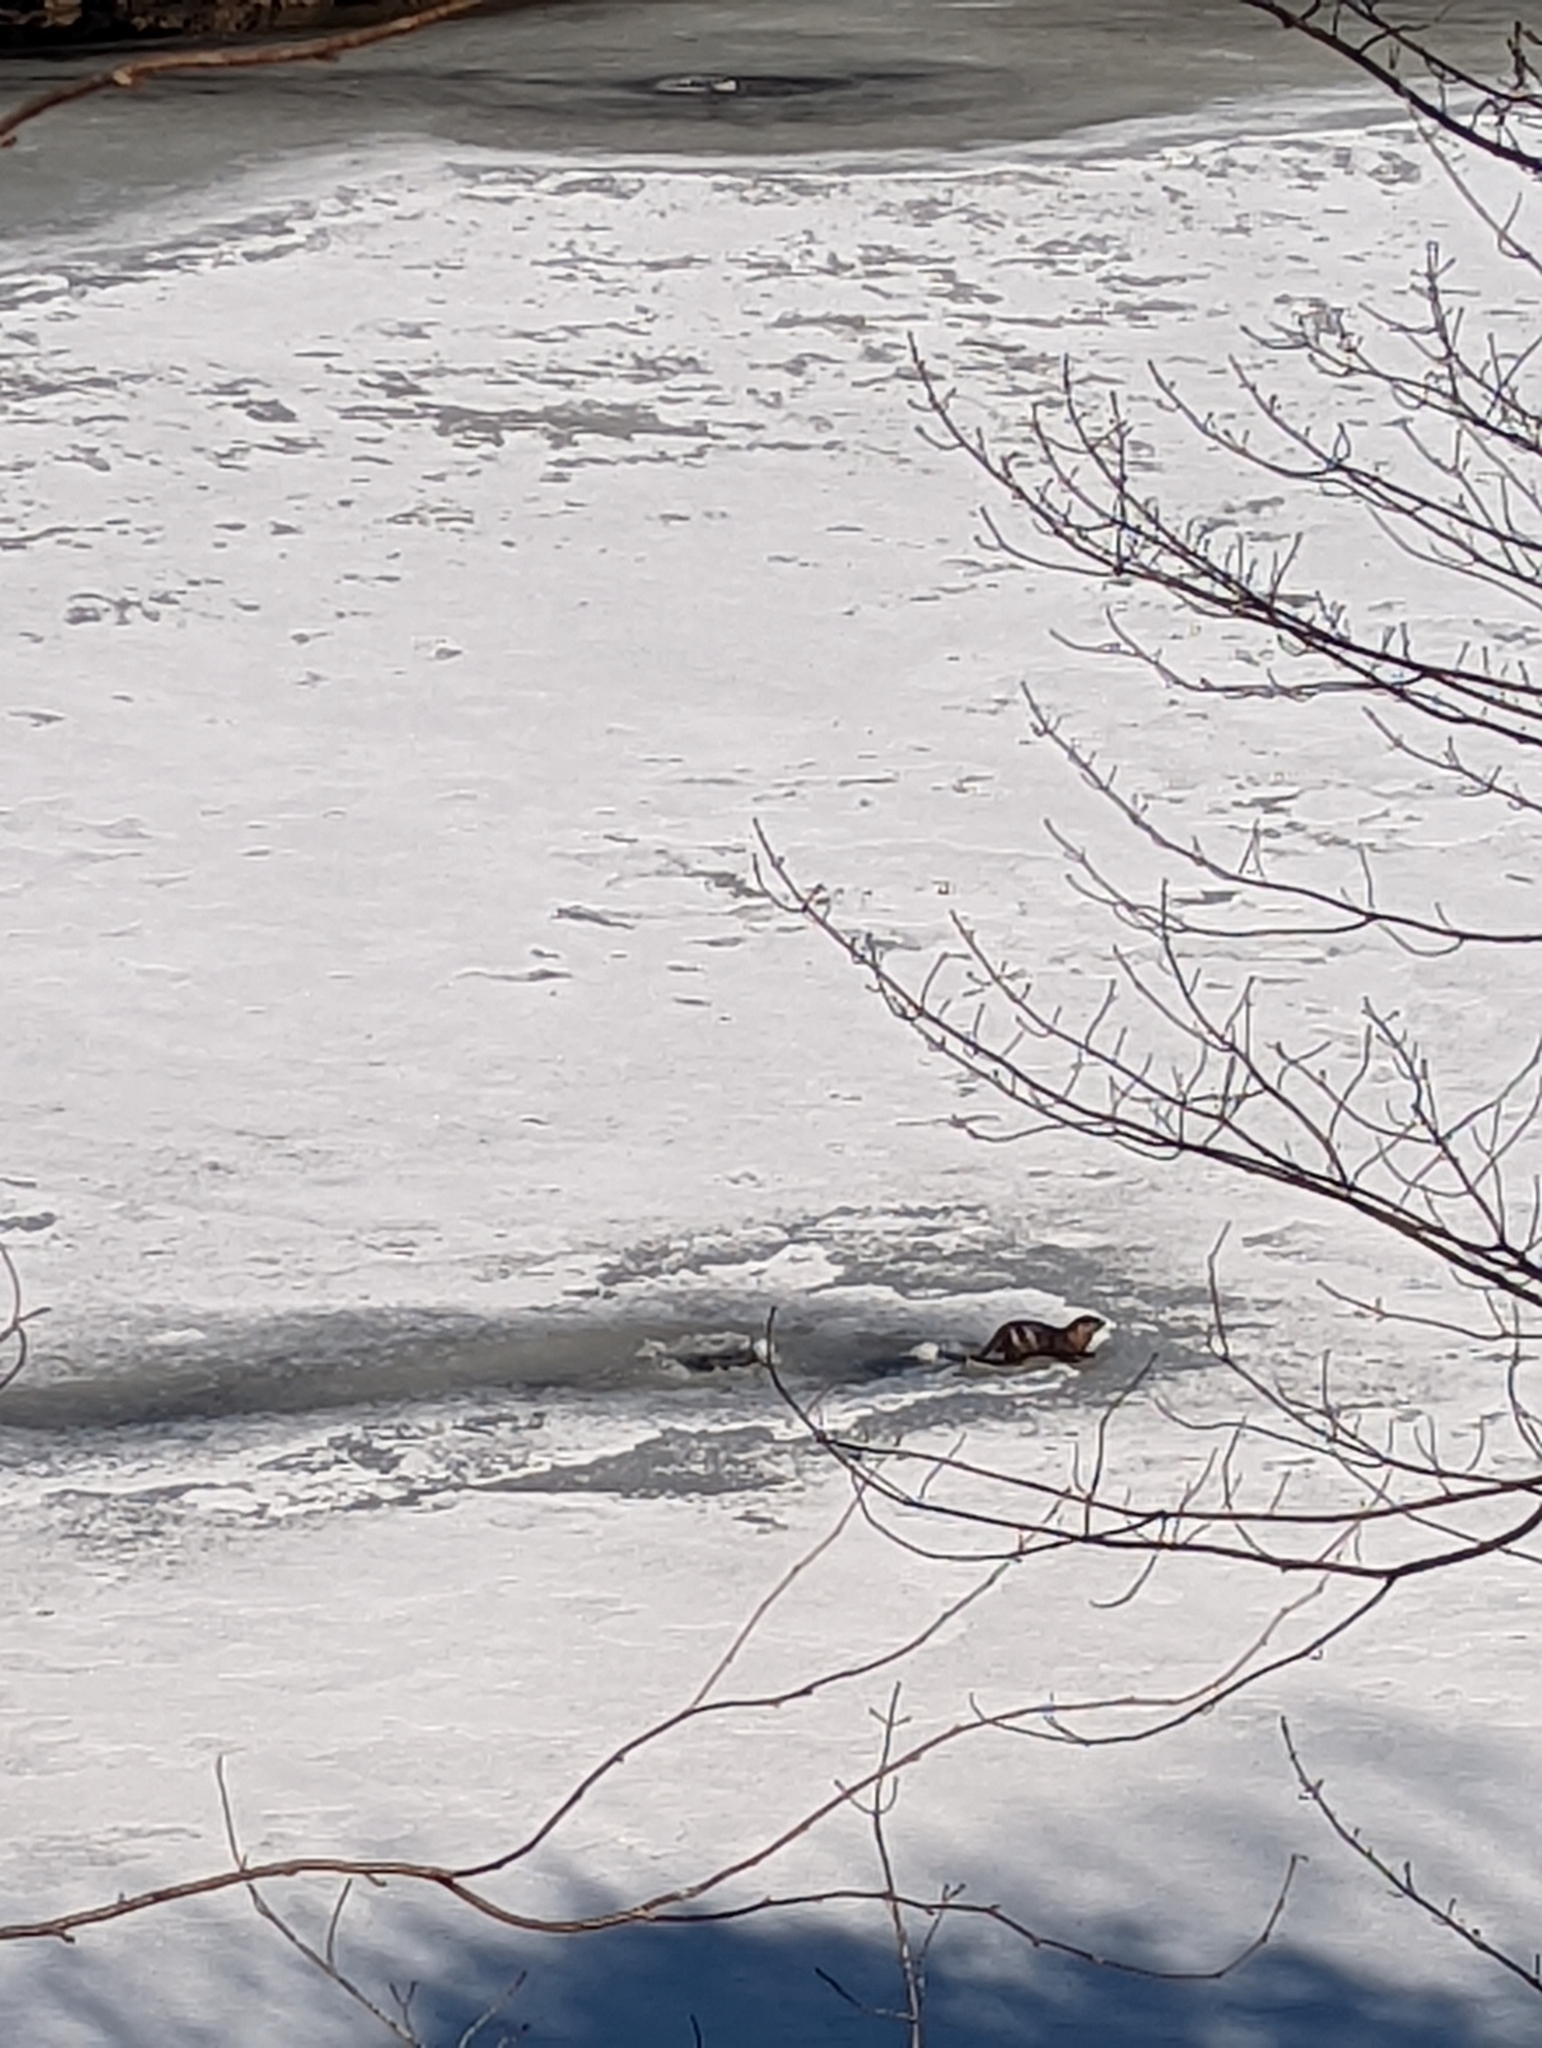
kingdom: Animalia
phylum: Chordata
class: Mammalia
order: Carnivora
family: Mustelidae
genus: Lontra
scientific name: Lontra canadensis
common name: North american river otter
